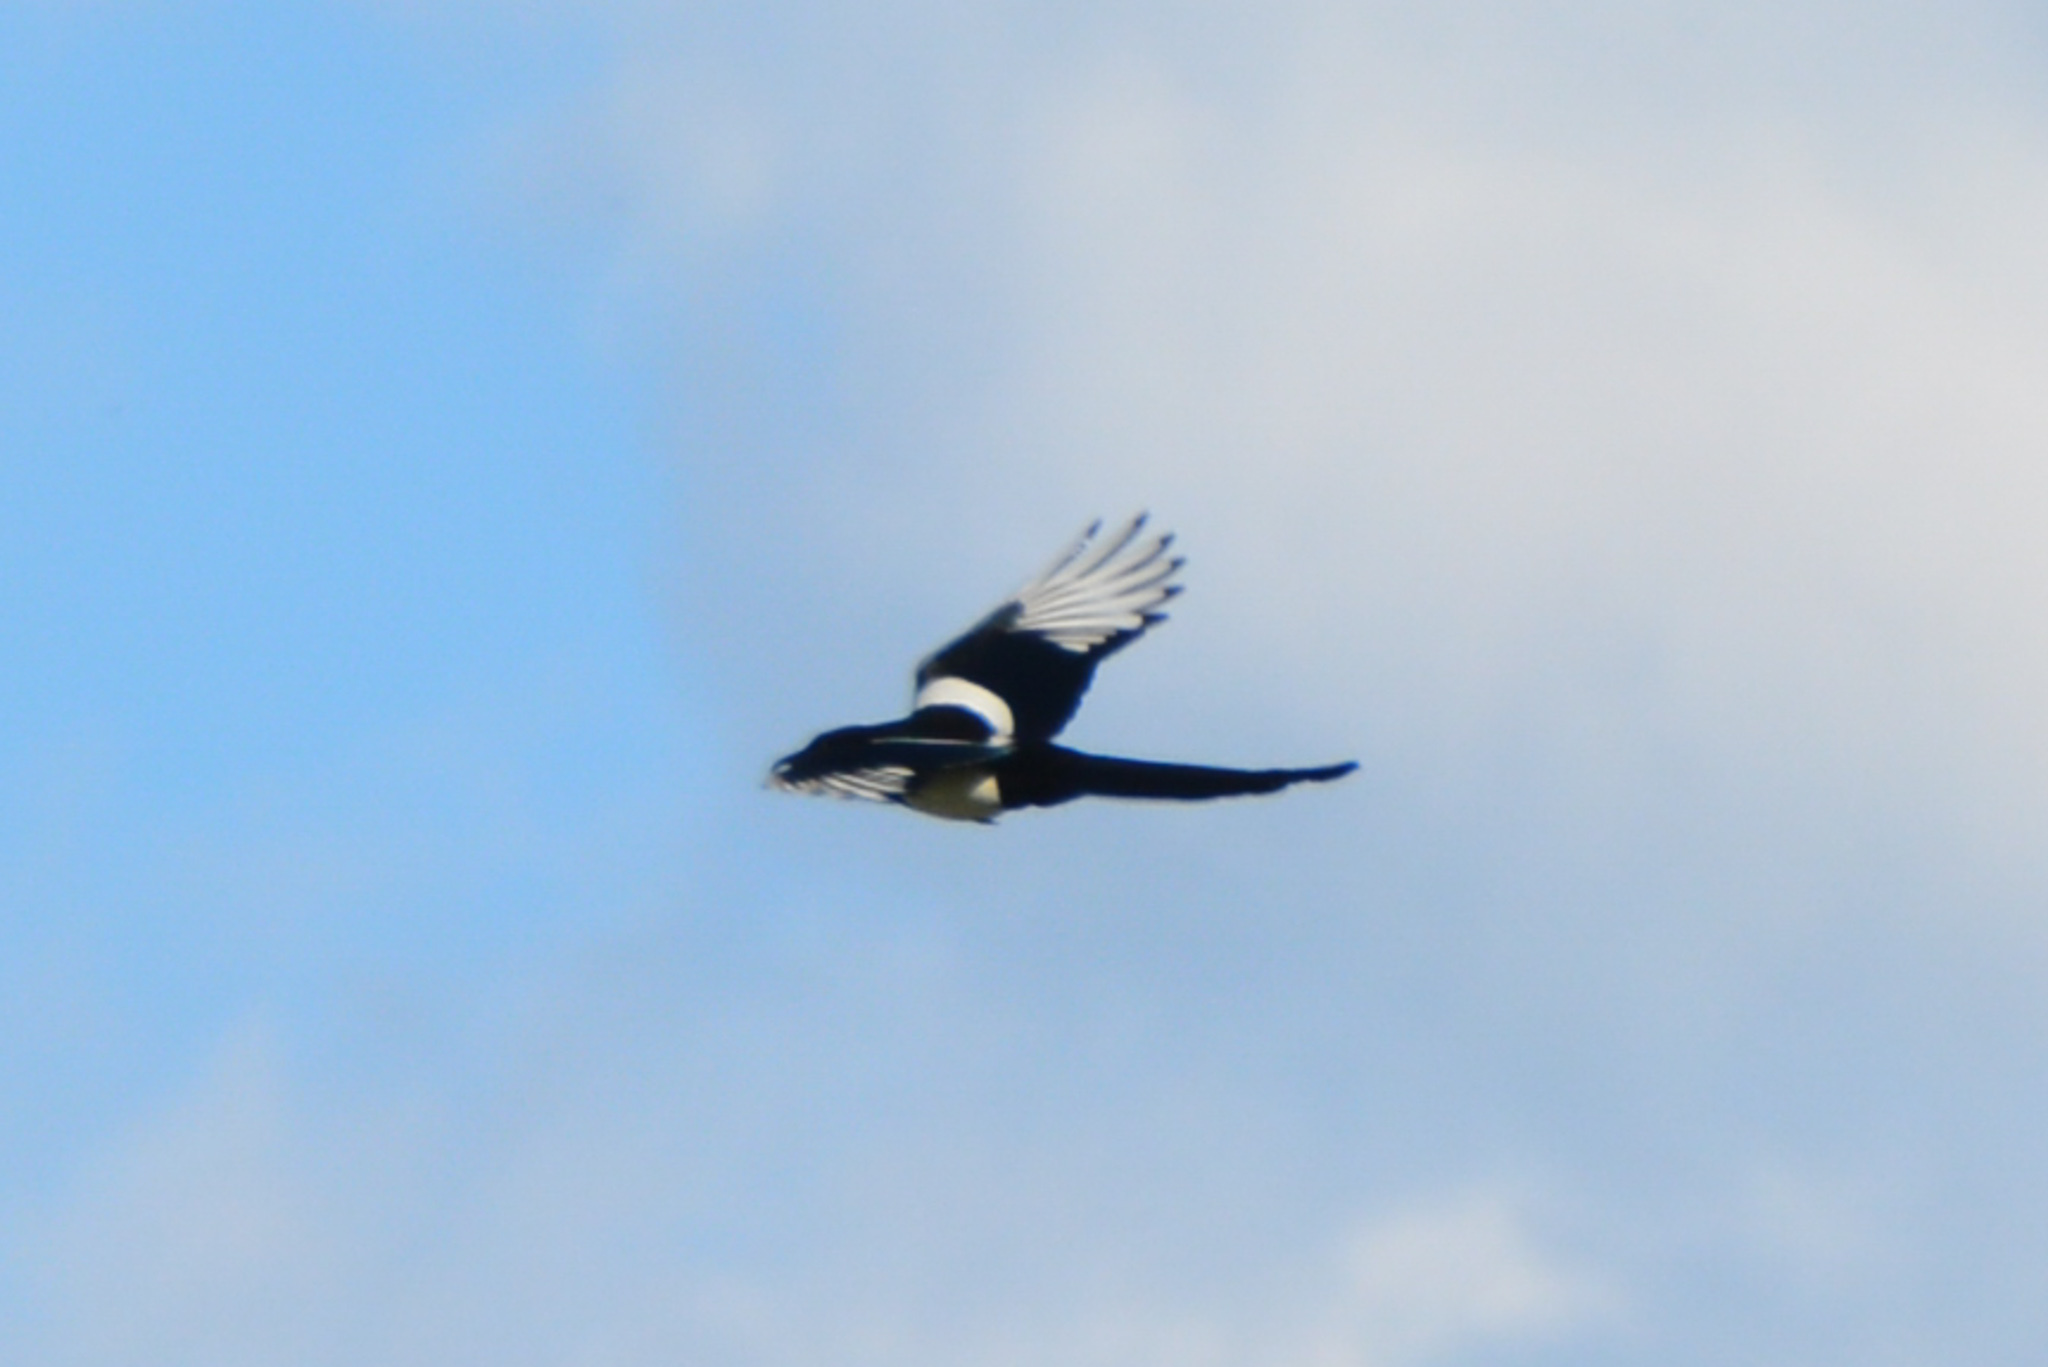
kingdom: Animalia
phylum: Chordata
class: Aves
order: Passeriformes
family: Corvidae
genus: Pica
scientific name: Pica hudsonia
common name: Black-billed magpie
